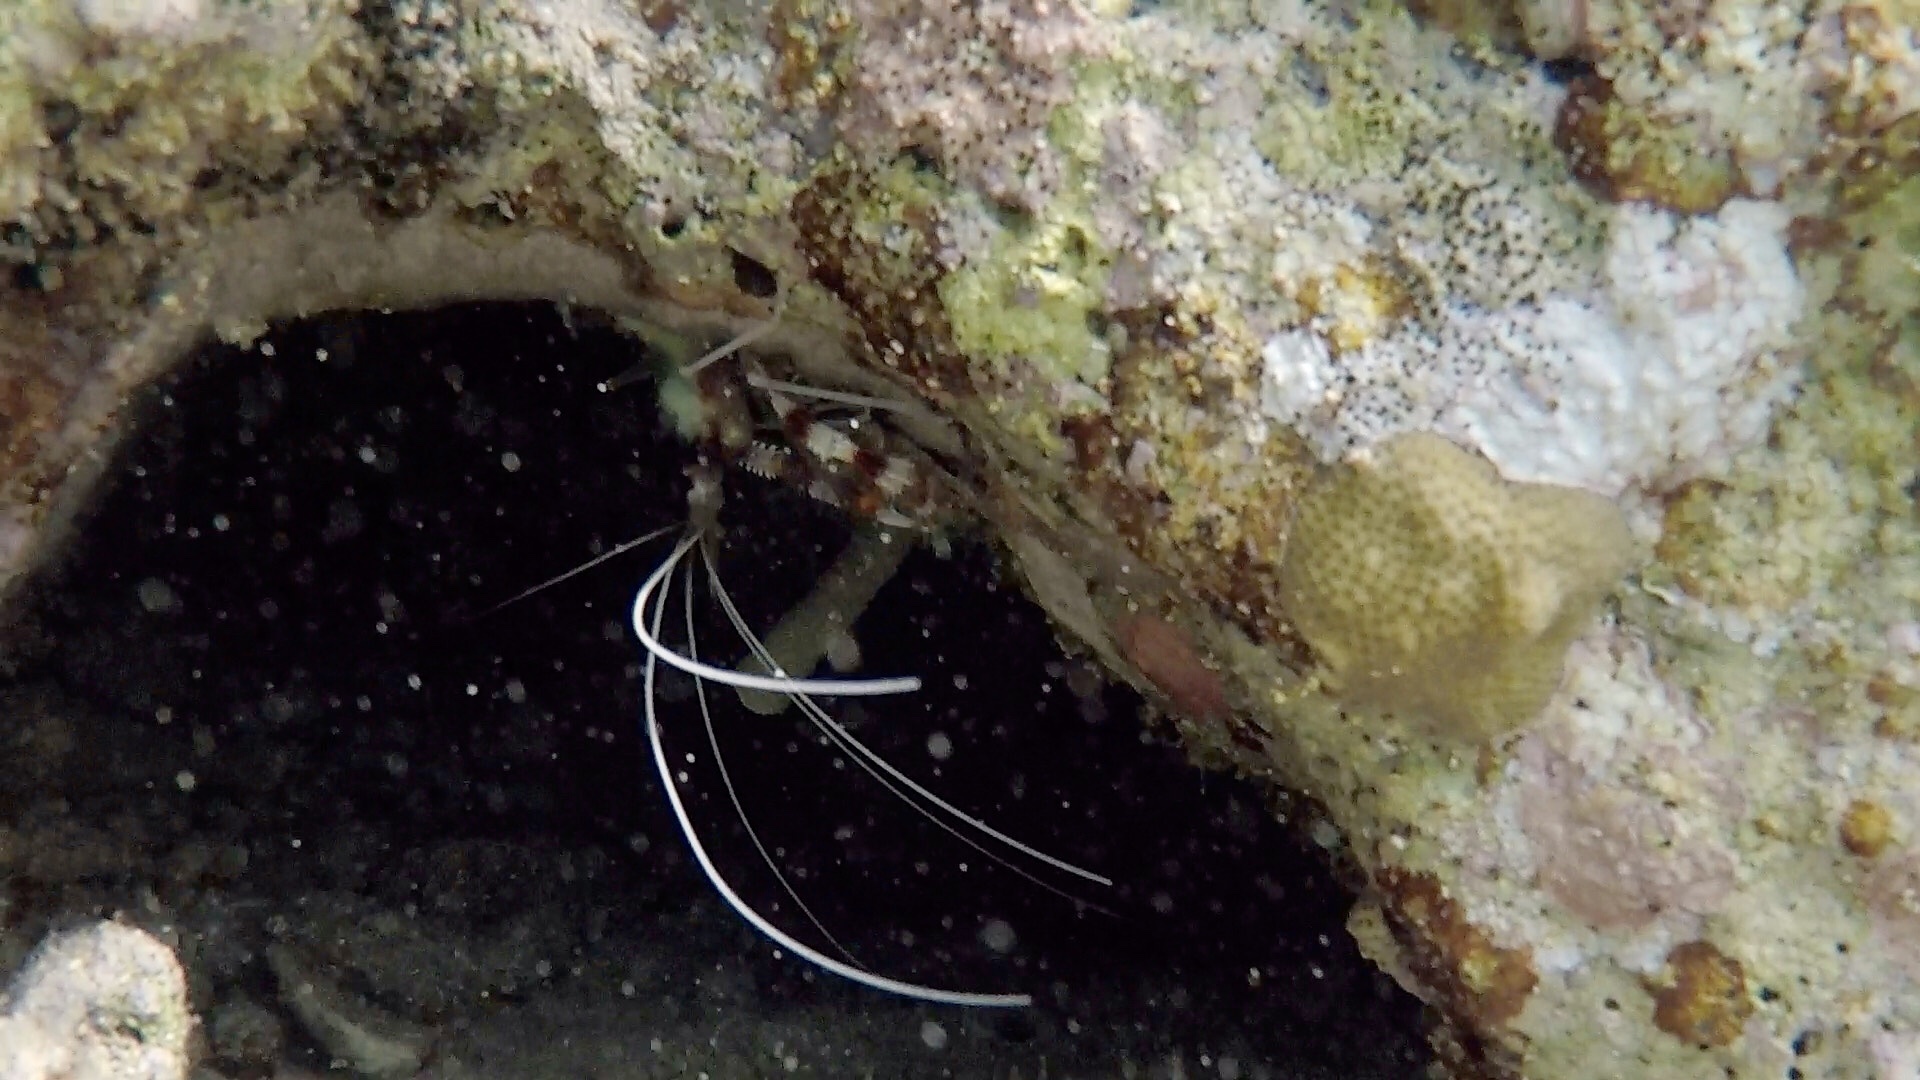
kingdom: Animalia
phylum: Arthropoda
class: Malacostraca
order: Decapoda
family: Stenopodidae
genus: Stenopus
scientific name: Stenopus hispidus
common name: Banded coral shrimp
